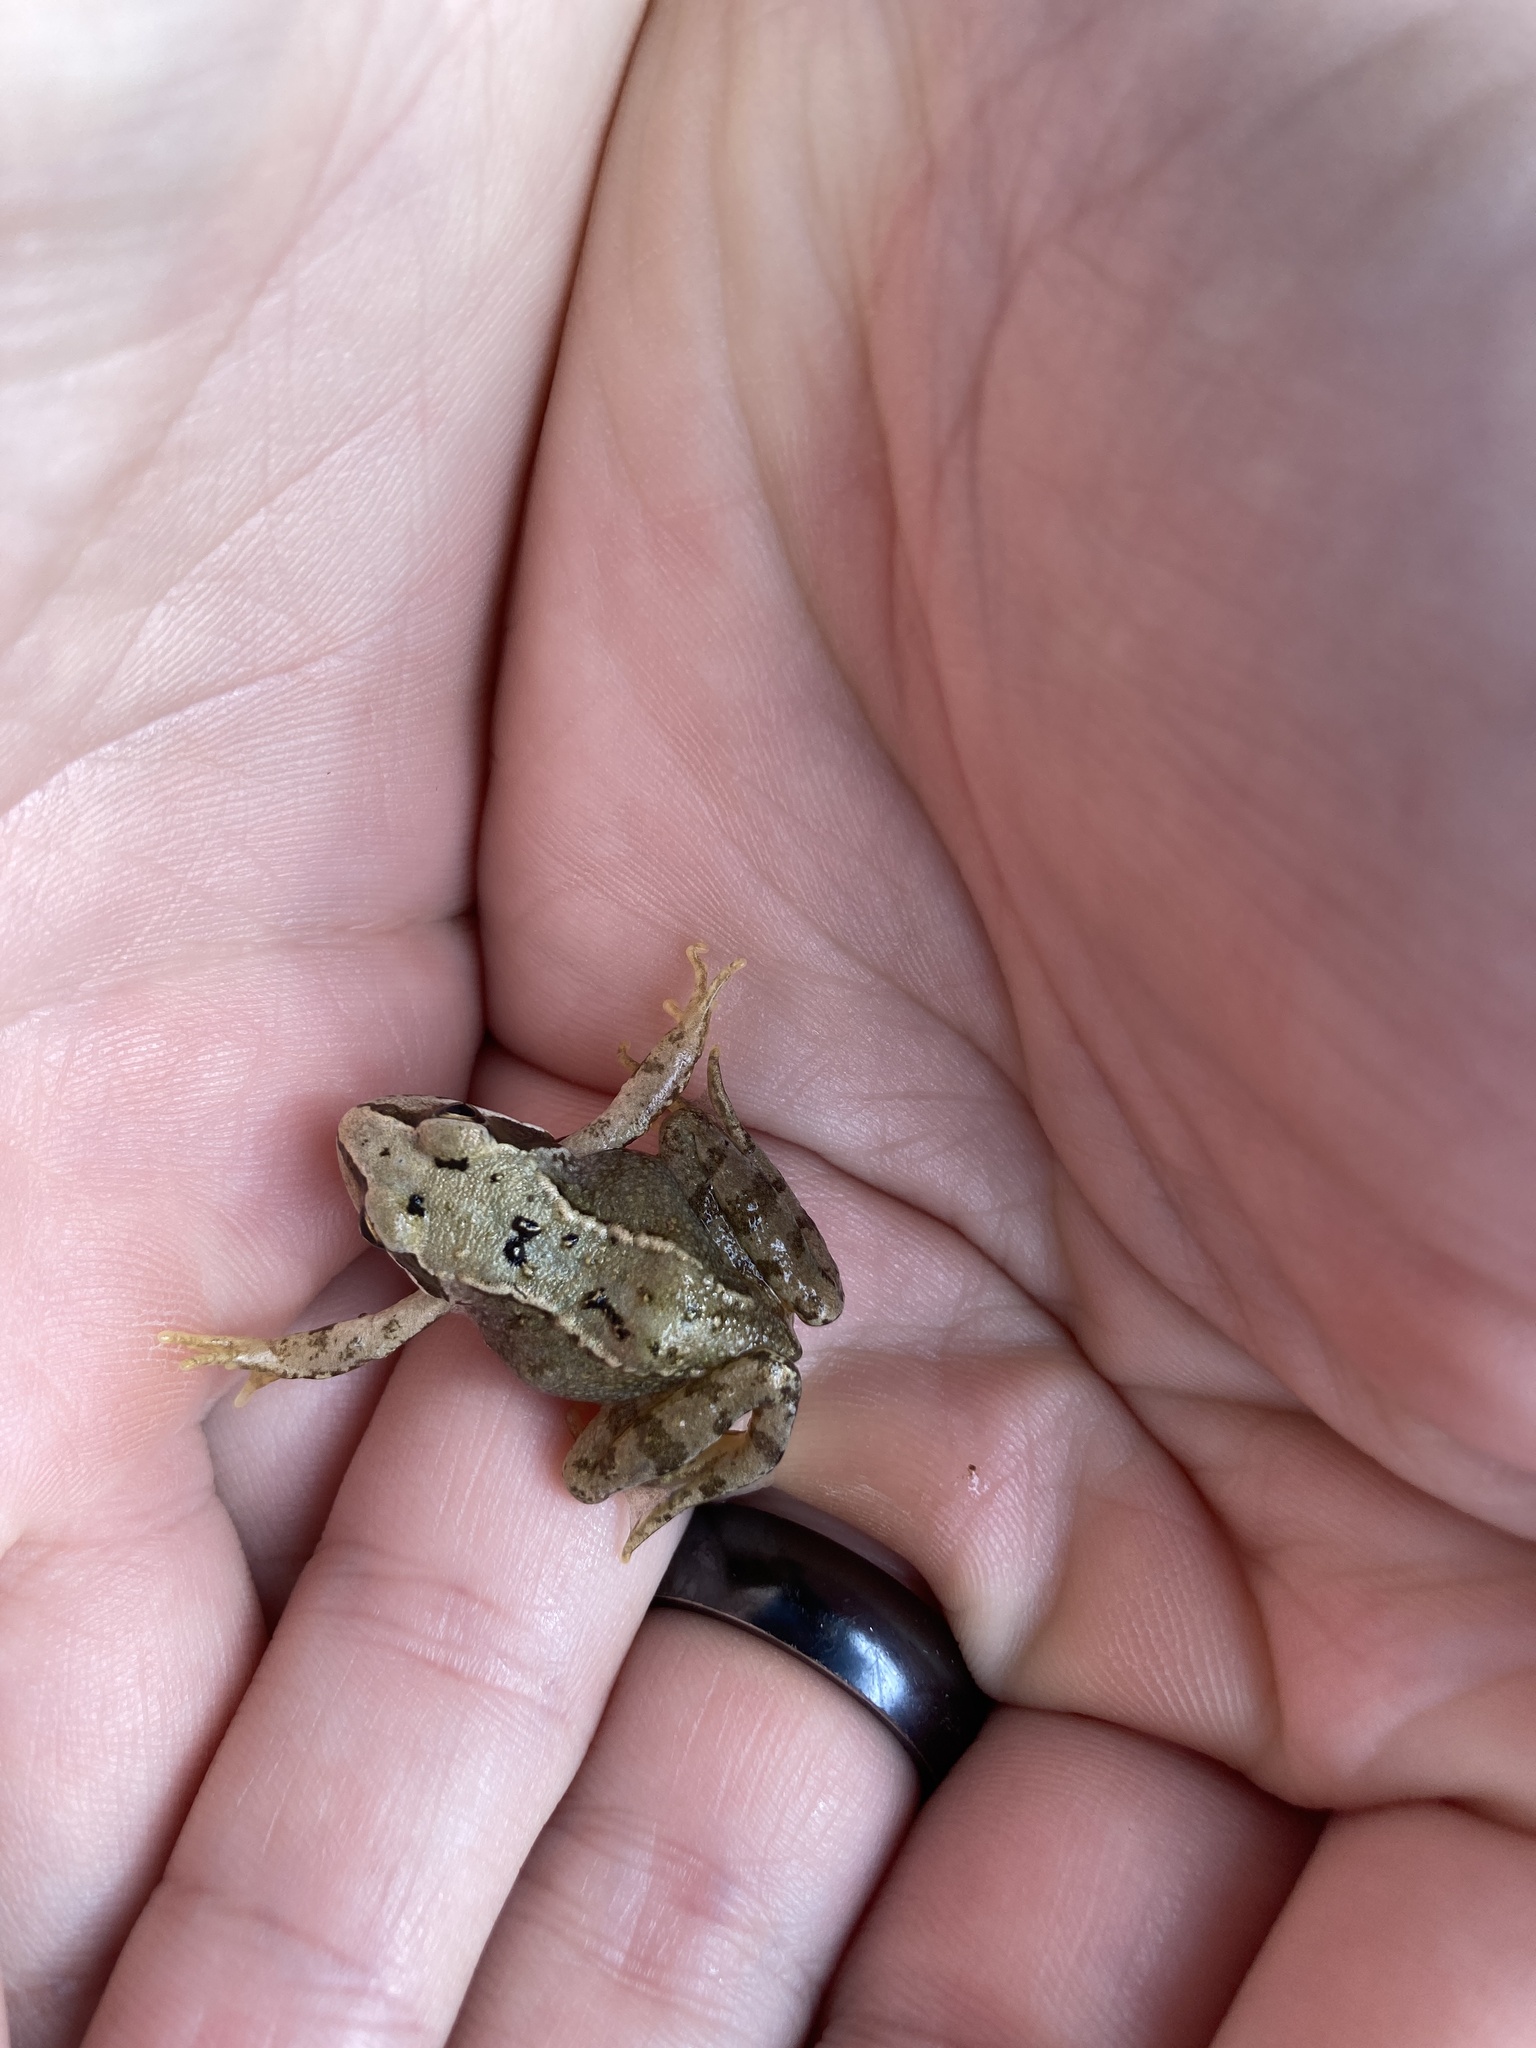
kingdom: Animalia
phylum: Chordata
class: Amphibia
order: Anura
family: Ranidae
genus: Rana
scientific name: Rana temporaria
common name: Common frog
